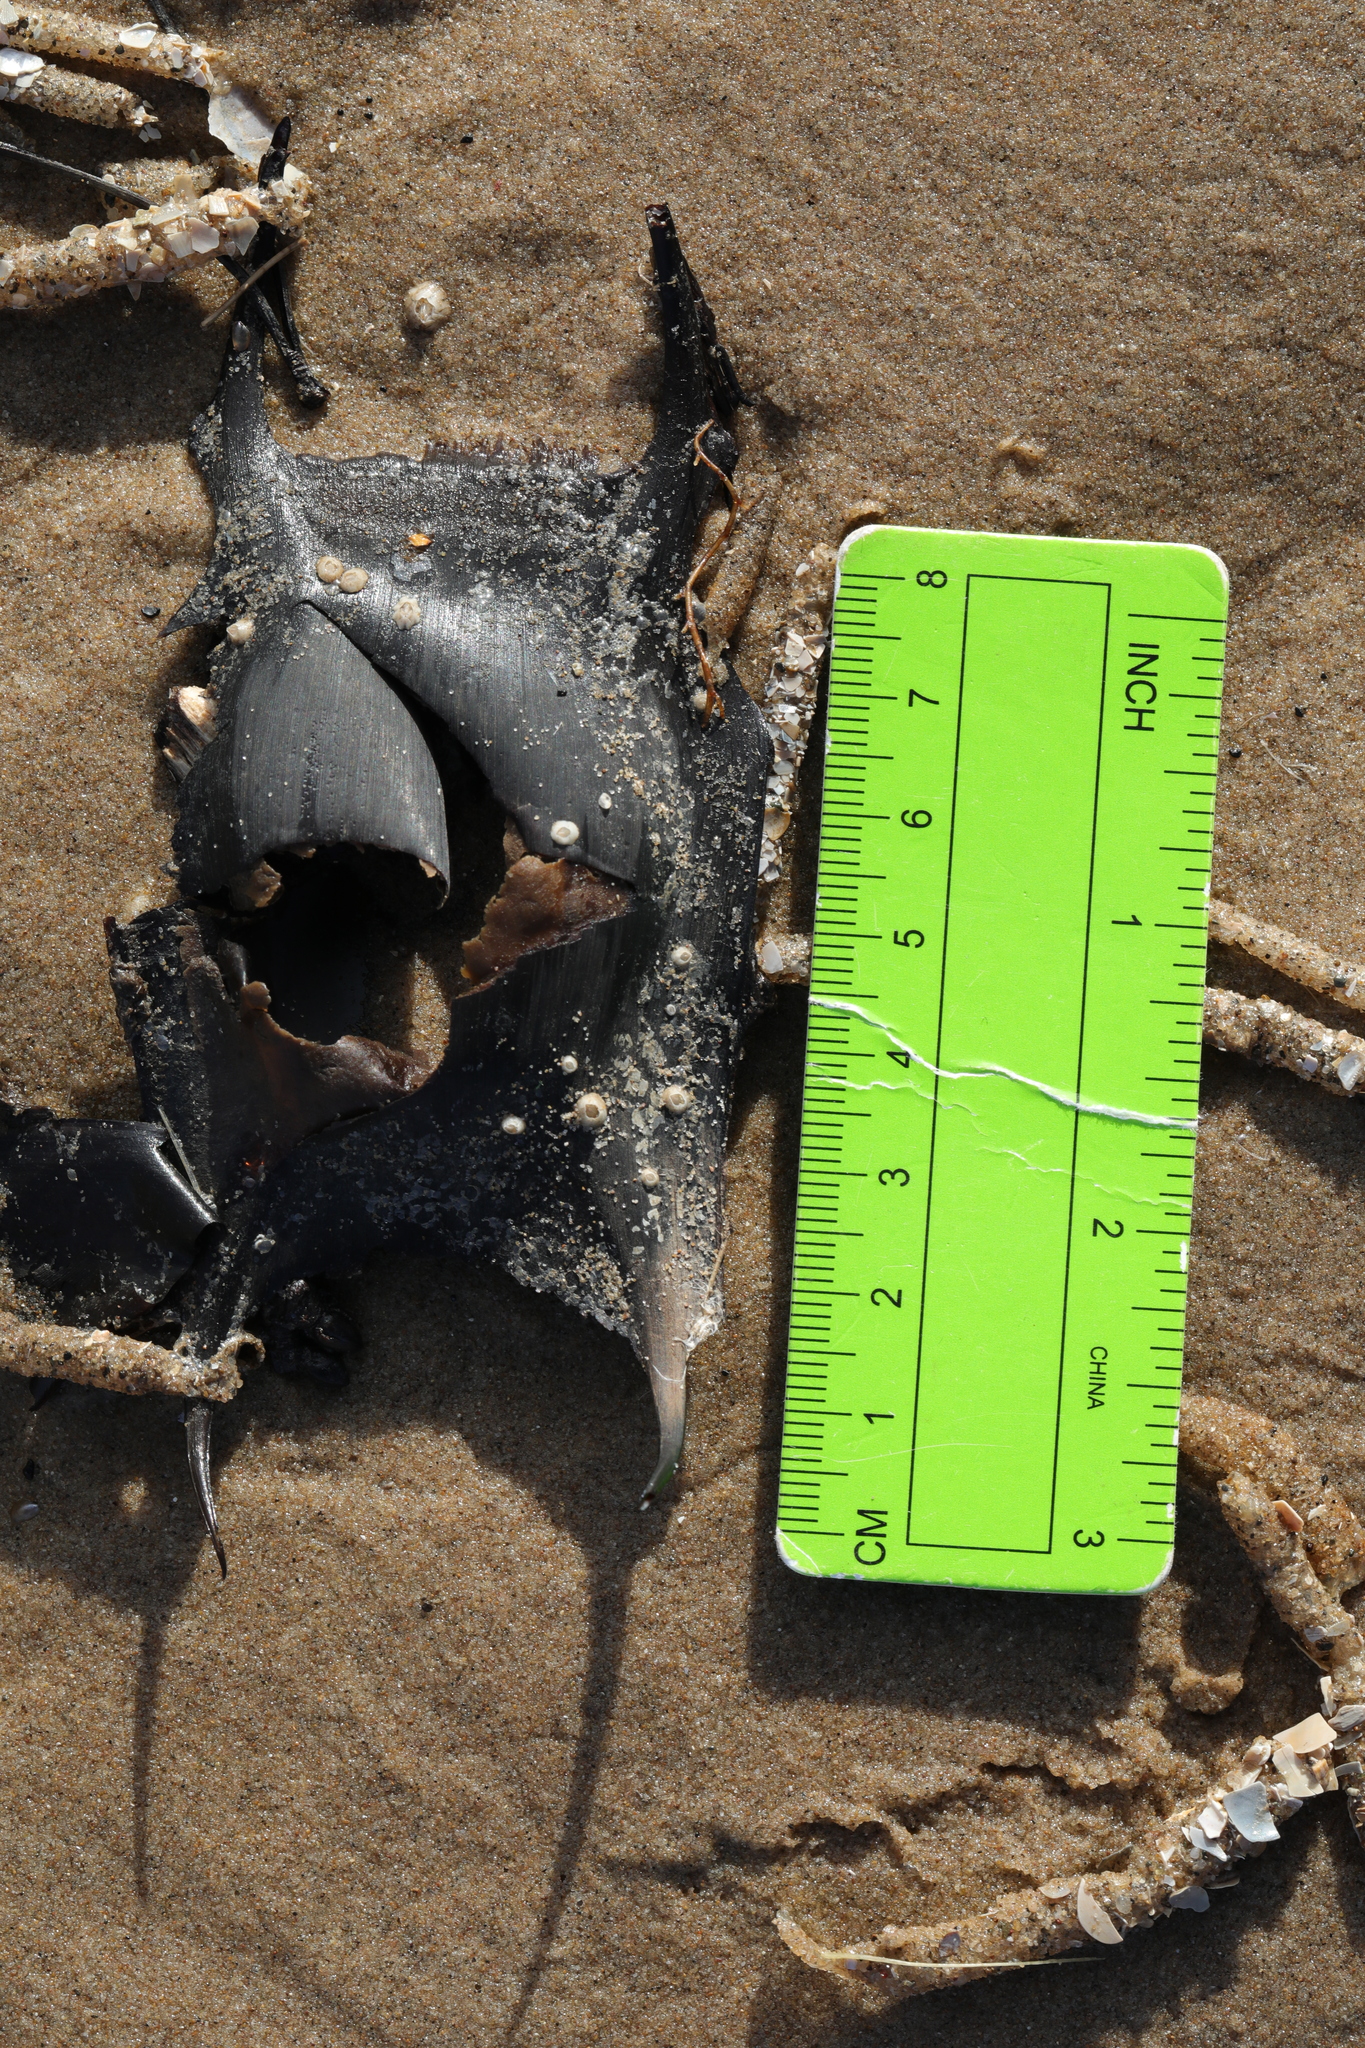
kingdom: Animalia
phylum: Chordata
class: Elasmobranchii
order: Rajiformes
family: Rajidae
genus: Raja
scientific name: Raja clavata
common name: Thornback ray
